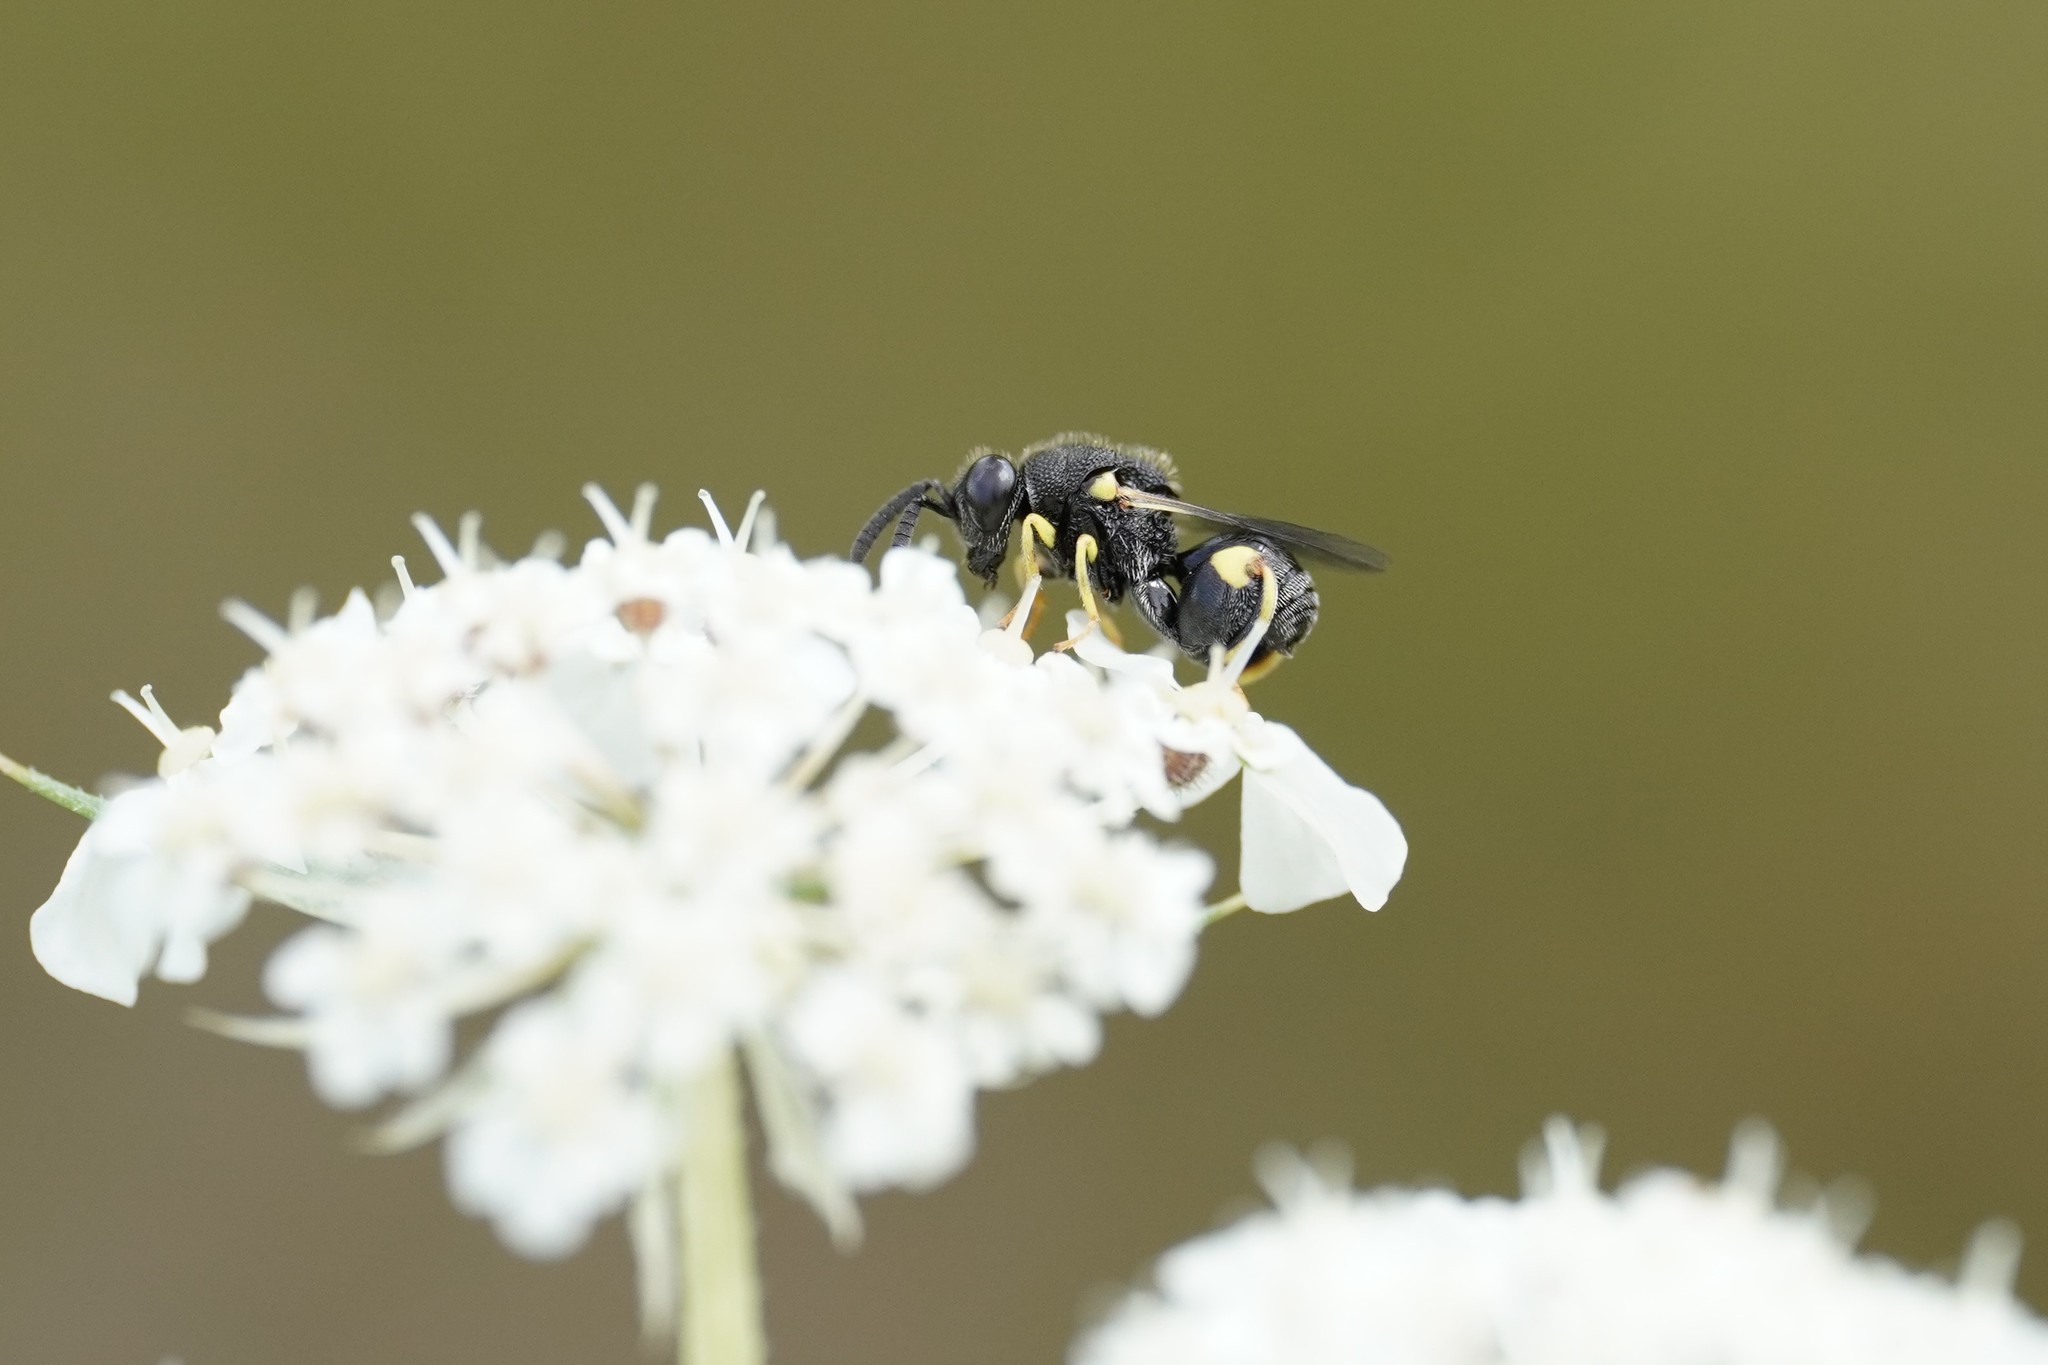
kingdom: Animalia
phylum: Arthropoda
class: Insecta
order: Hymenoptera
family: Chalcididae
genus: Brachymeria
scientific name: Brachymeria tibialis
